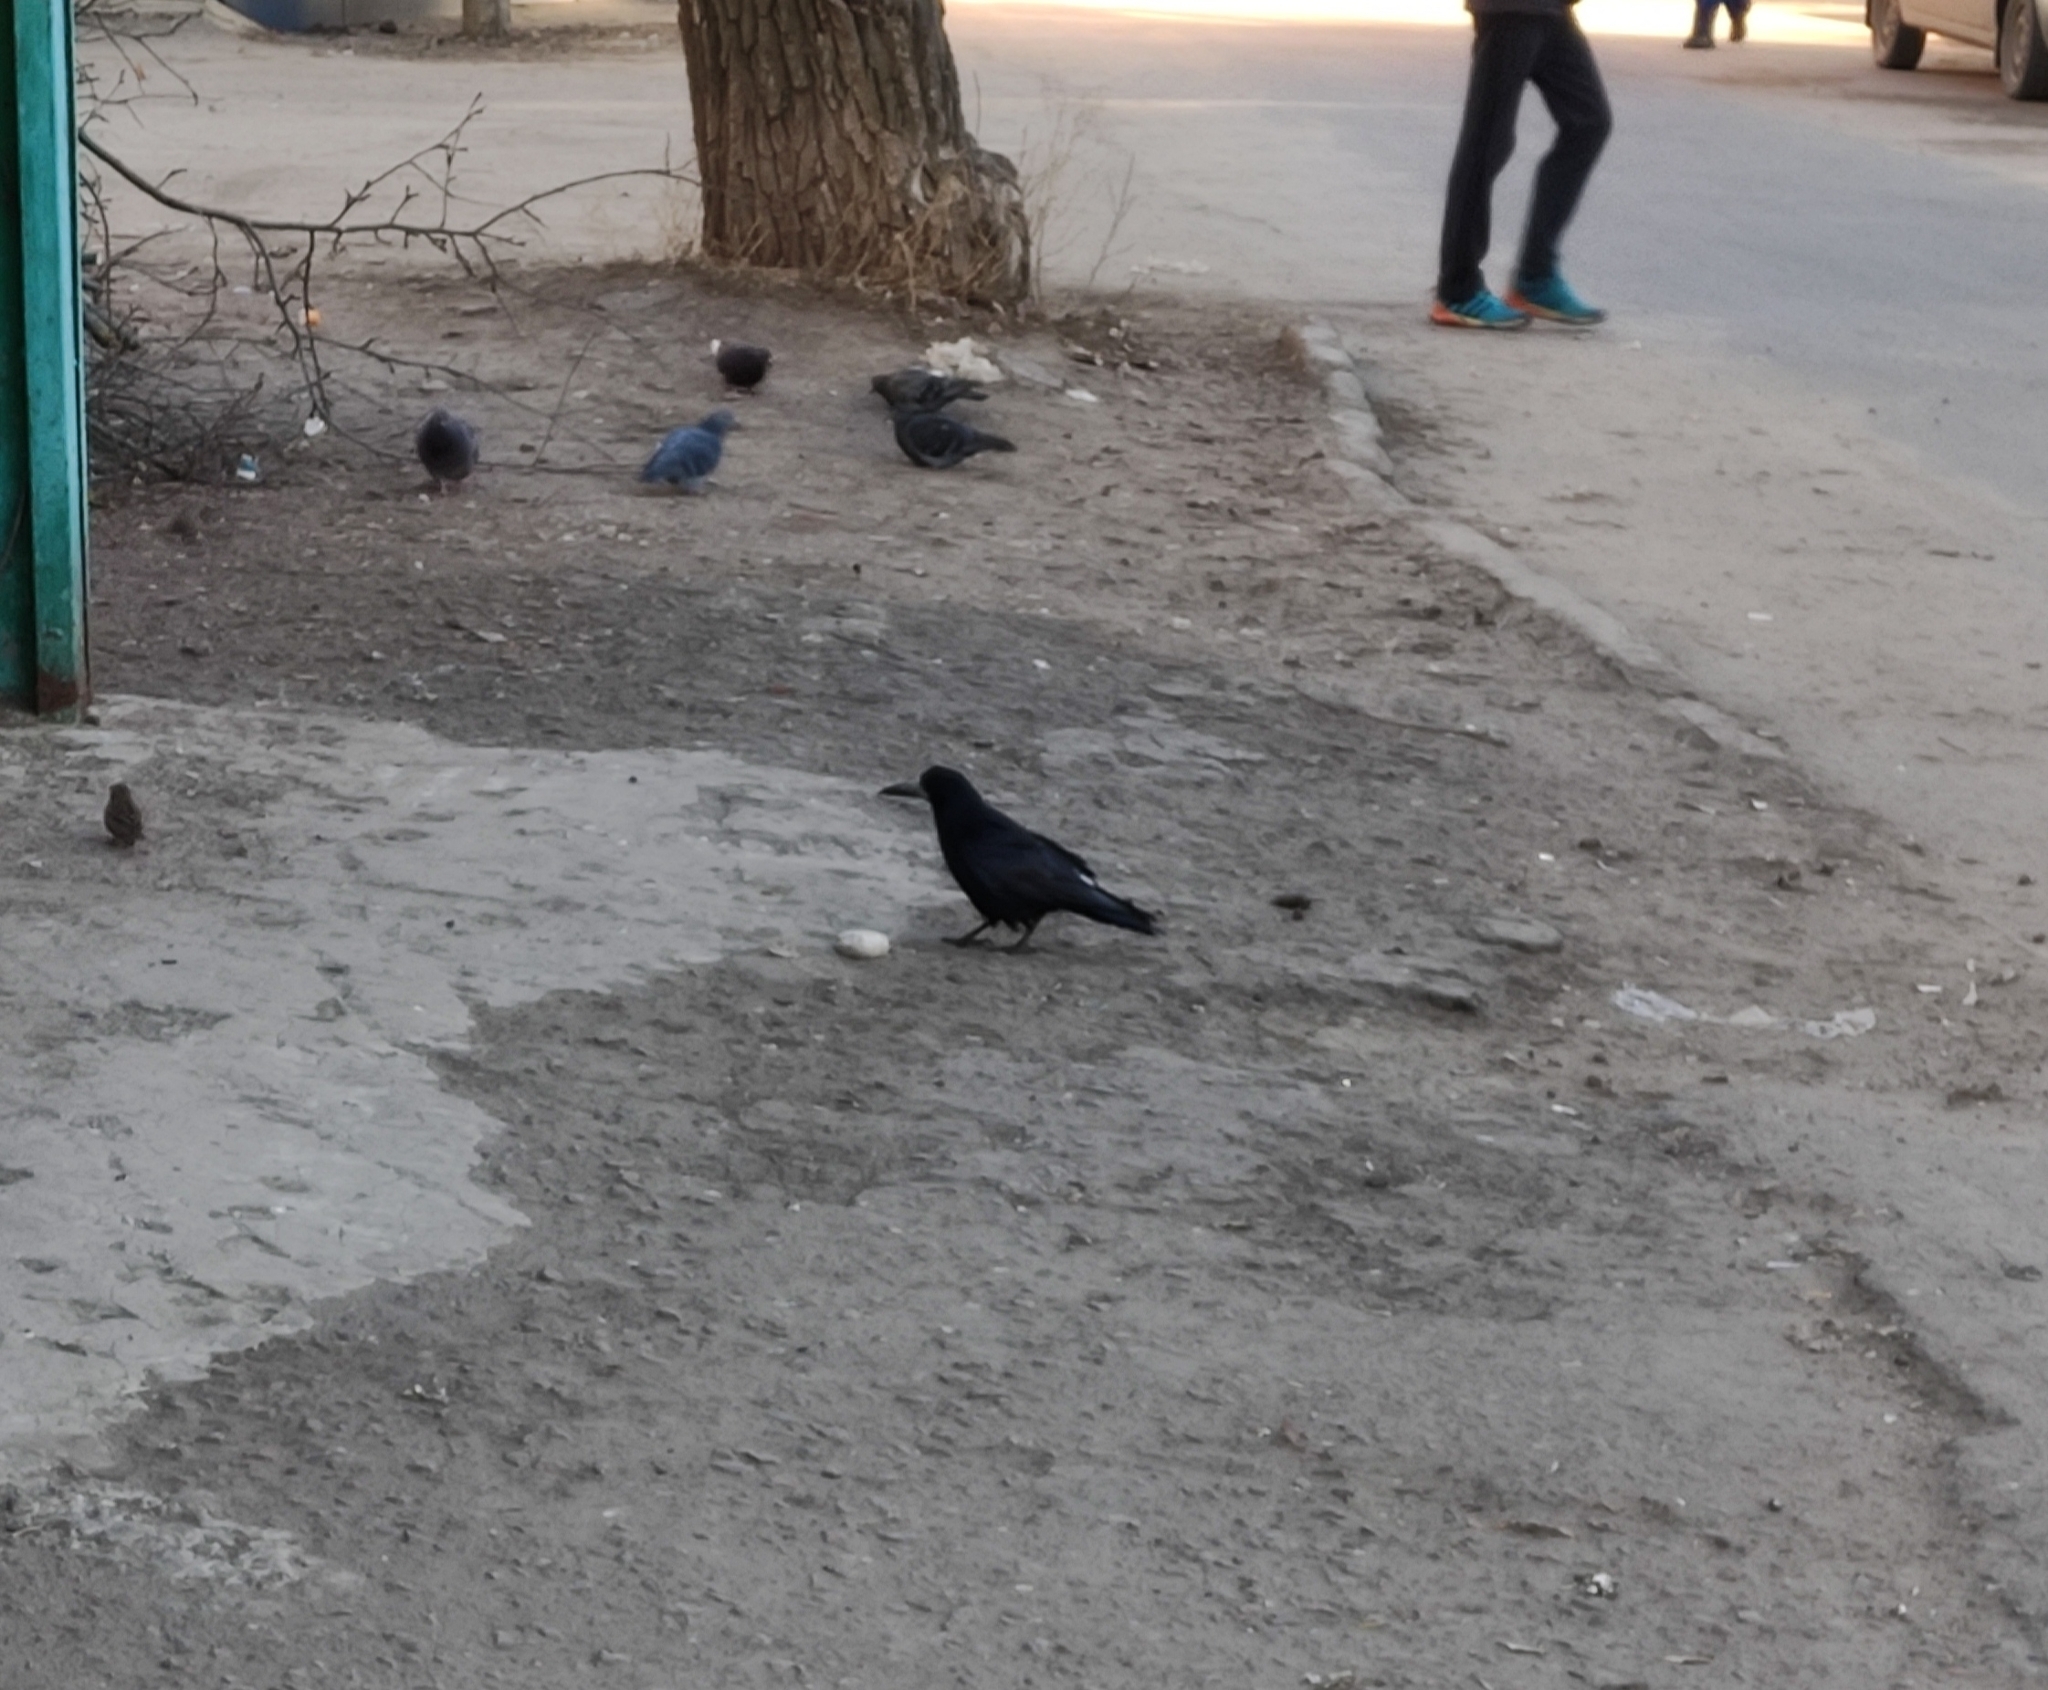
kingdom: Animalia
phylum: Chordata
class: Aves
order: Passeriformes
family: Corvidae
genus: Corvus
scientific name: Corvus frugilegus
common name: Rook
